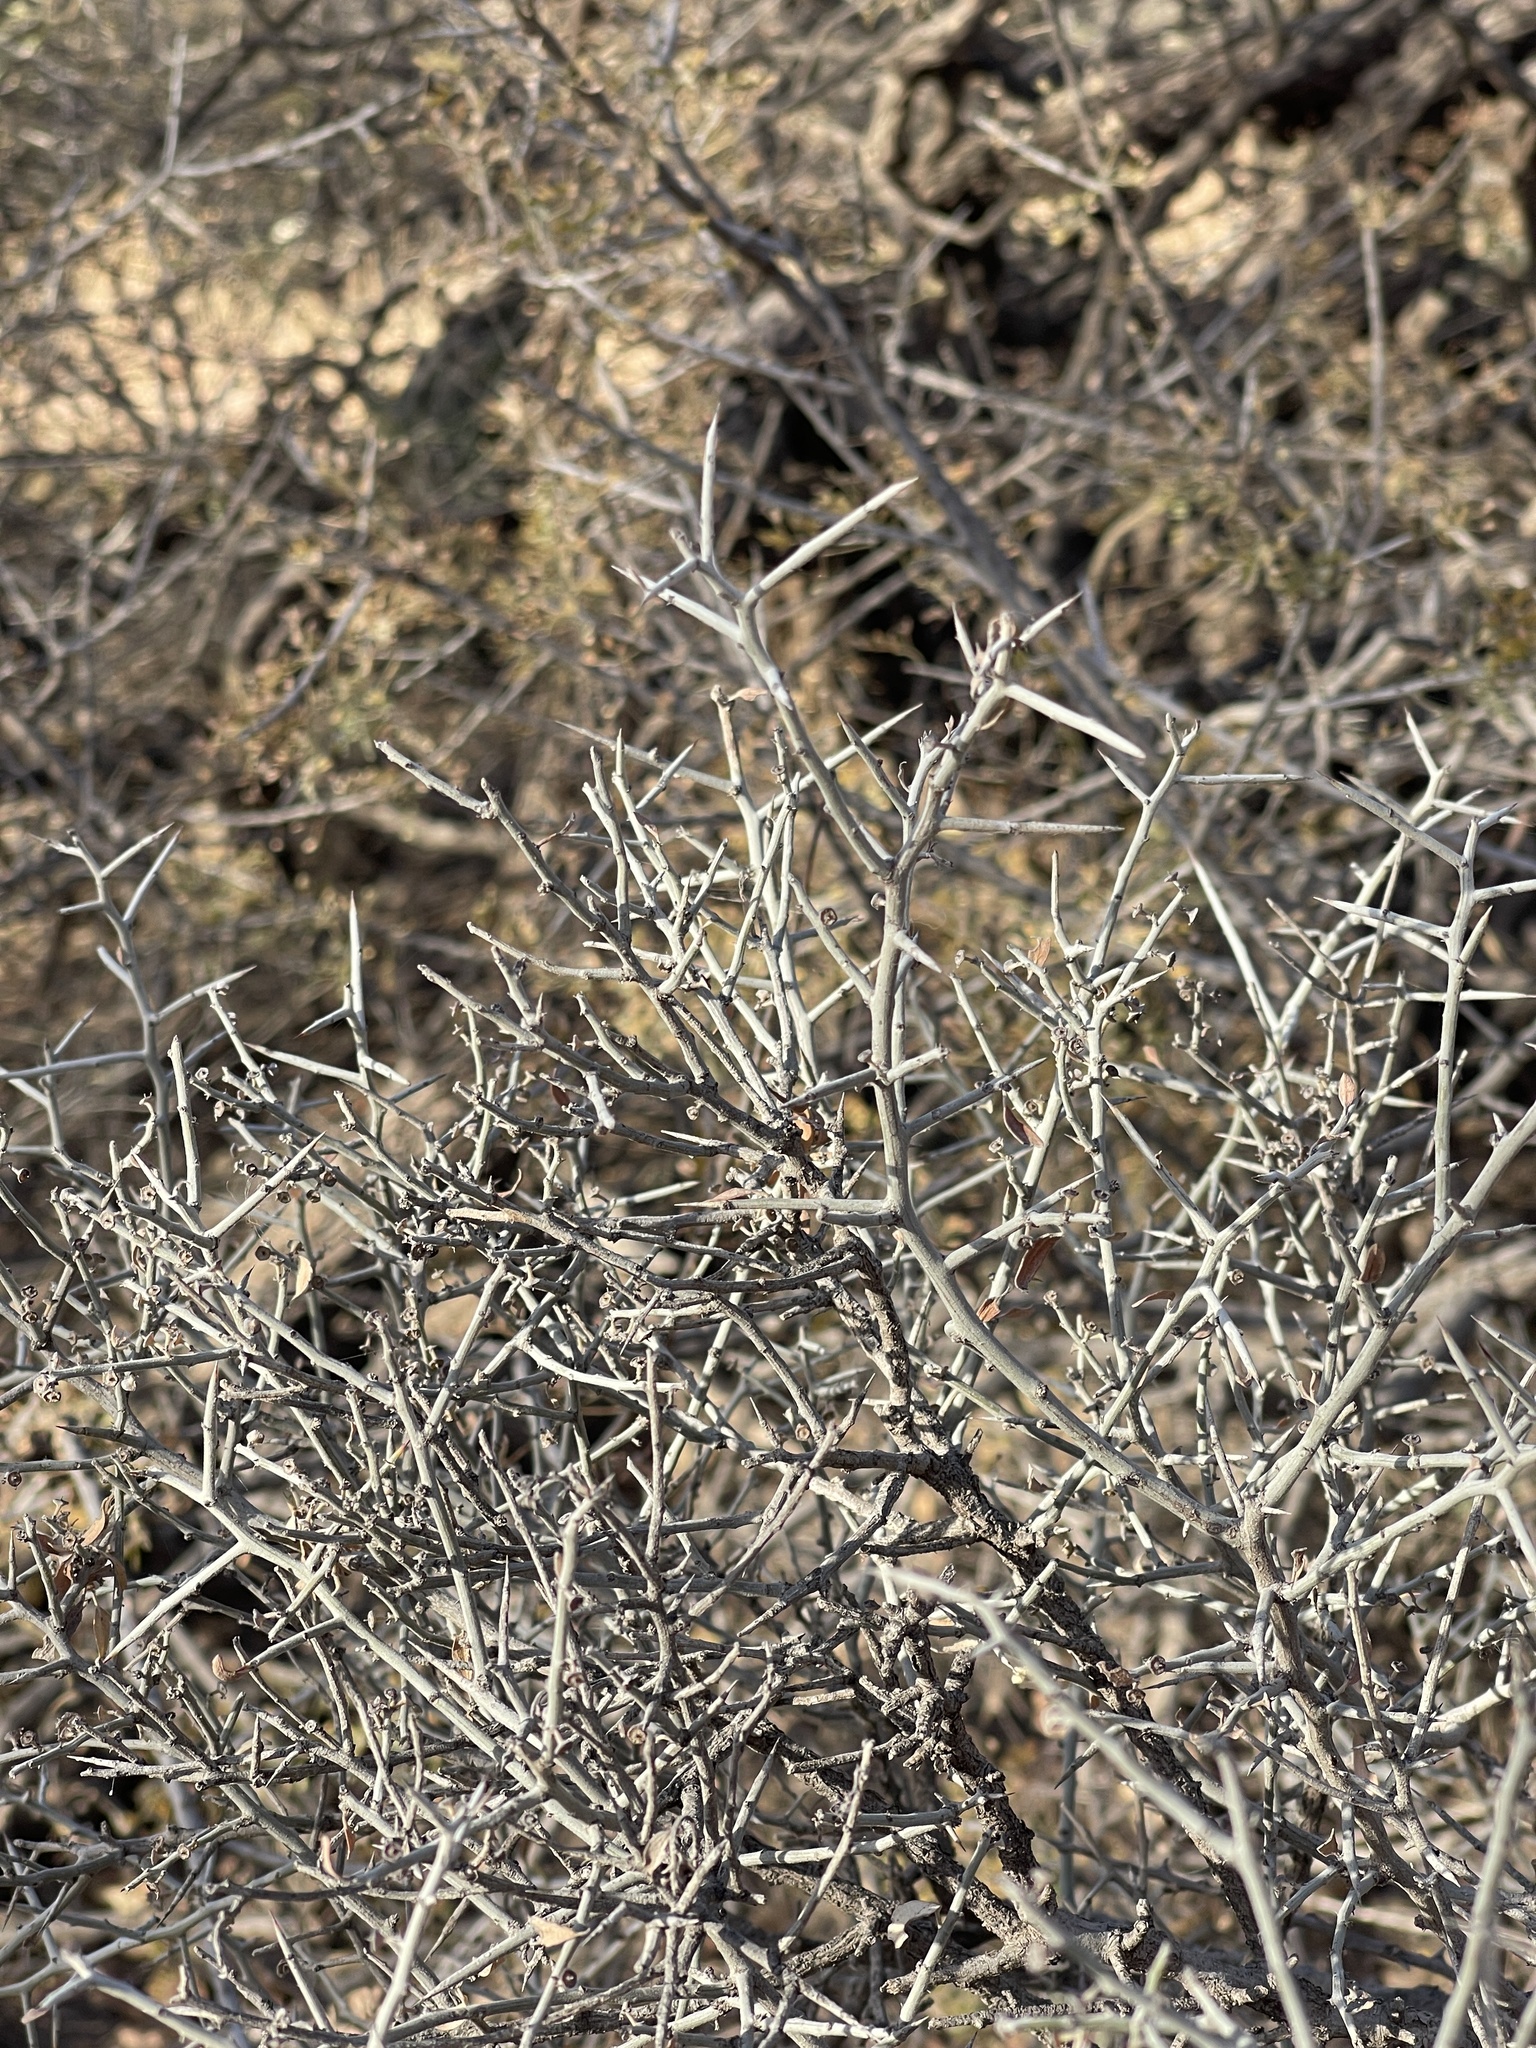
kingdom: Plantae
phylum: Tracheophyta
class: Magnoliopsida
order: Rosales
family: Rhamnaceae
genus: Sarcomphalus
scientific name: Sarcomphalus obtusifolius
